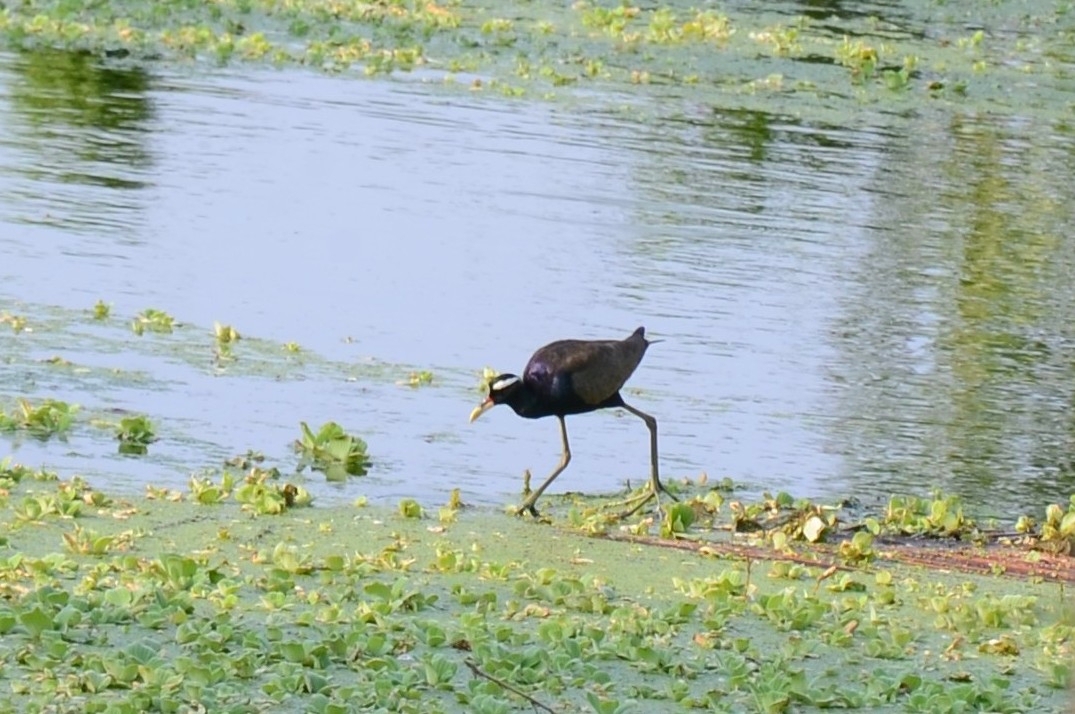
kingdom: Animalia
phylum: Chordata
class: Aves
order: Charadriiformes
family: Jacanidae
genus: Metopidius
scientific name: Metopidius indicus
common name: Bronze-winged jacana
